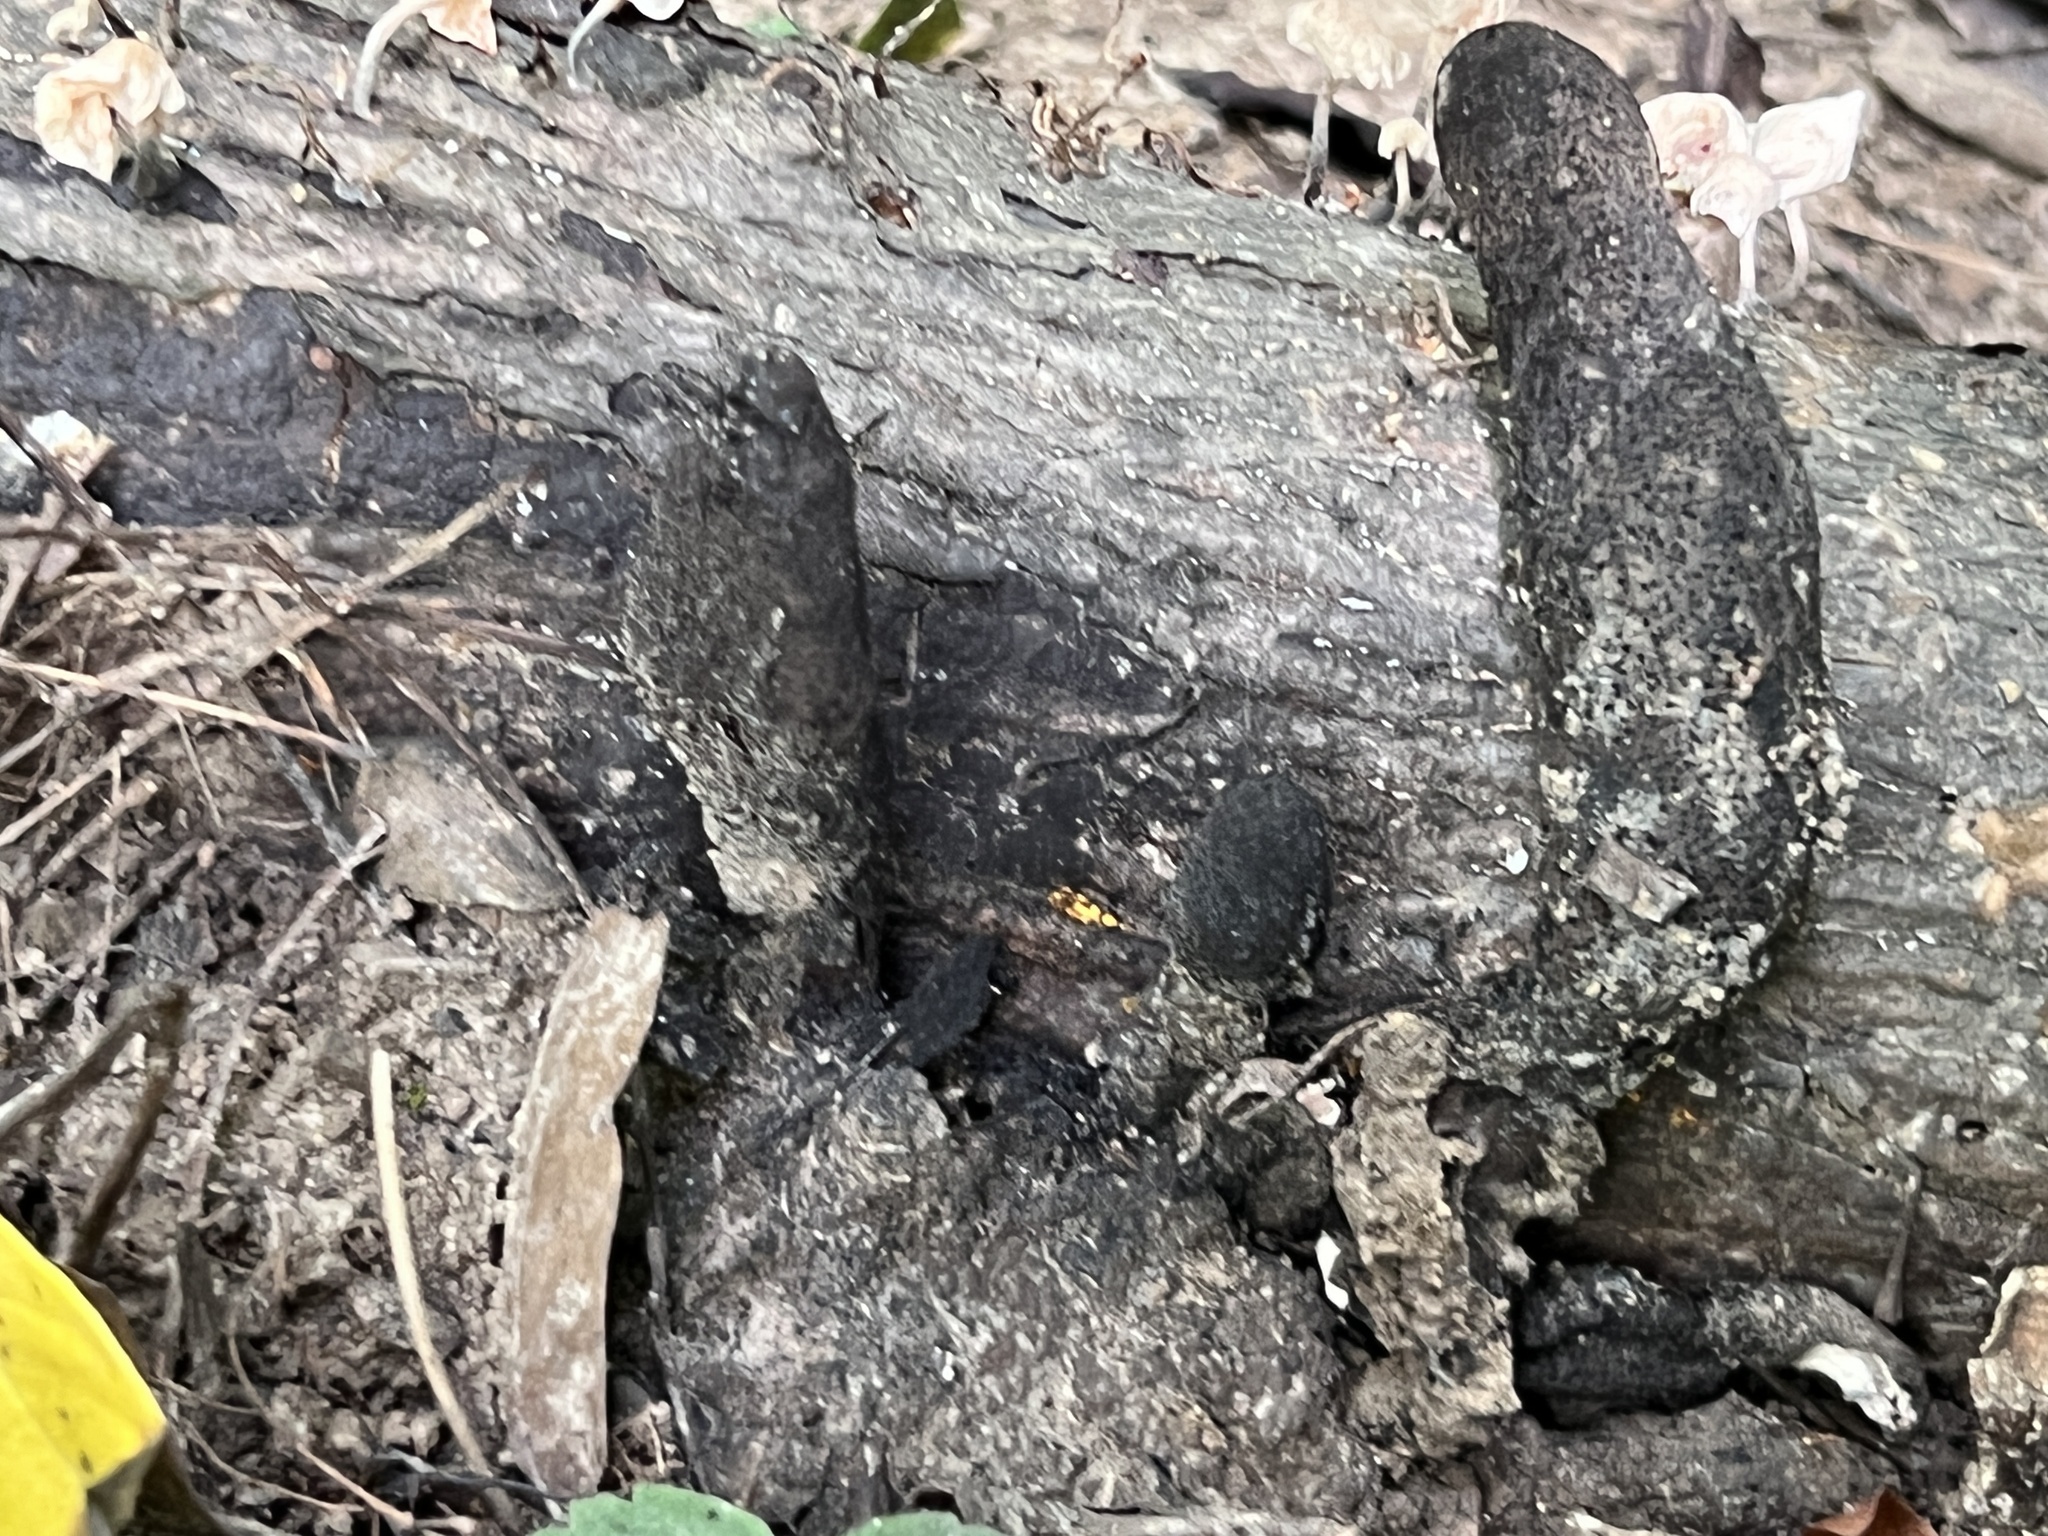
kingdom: Fungi
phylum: Ascomycota
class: Sordariomycetes
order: Xylariales
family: Xylariaceae
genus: Xylaria
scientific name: Xylaria polymorpha
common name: Dead man's fingers
